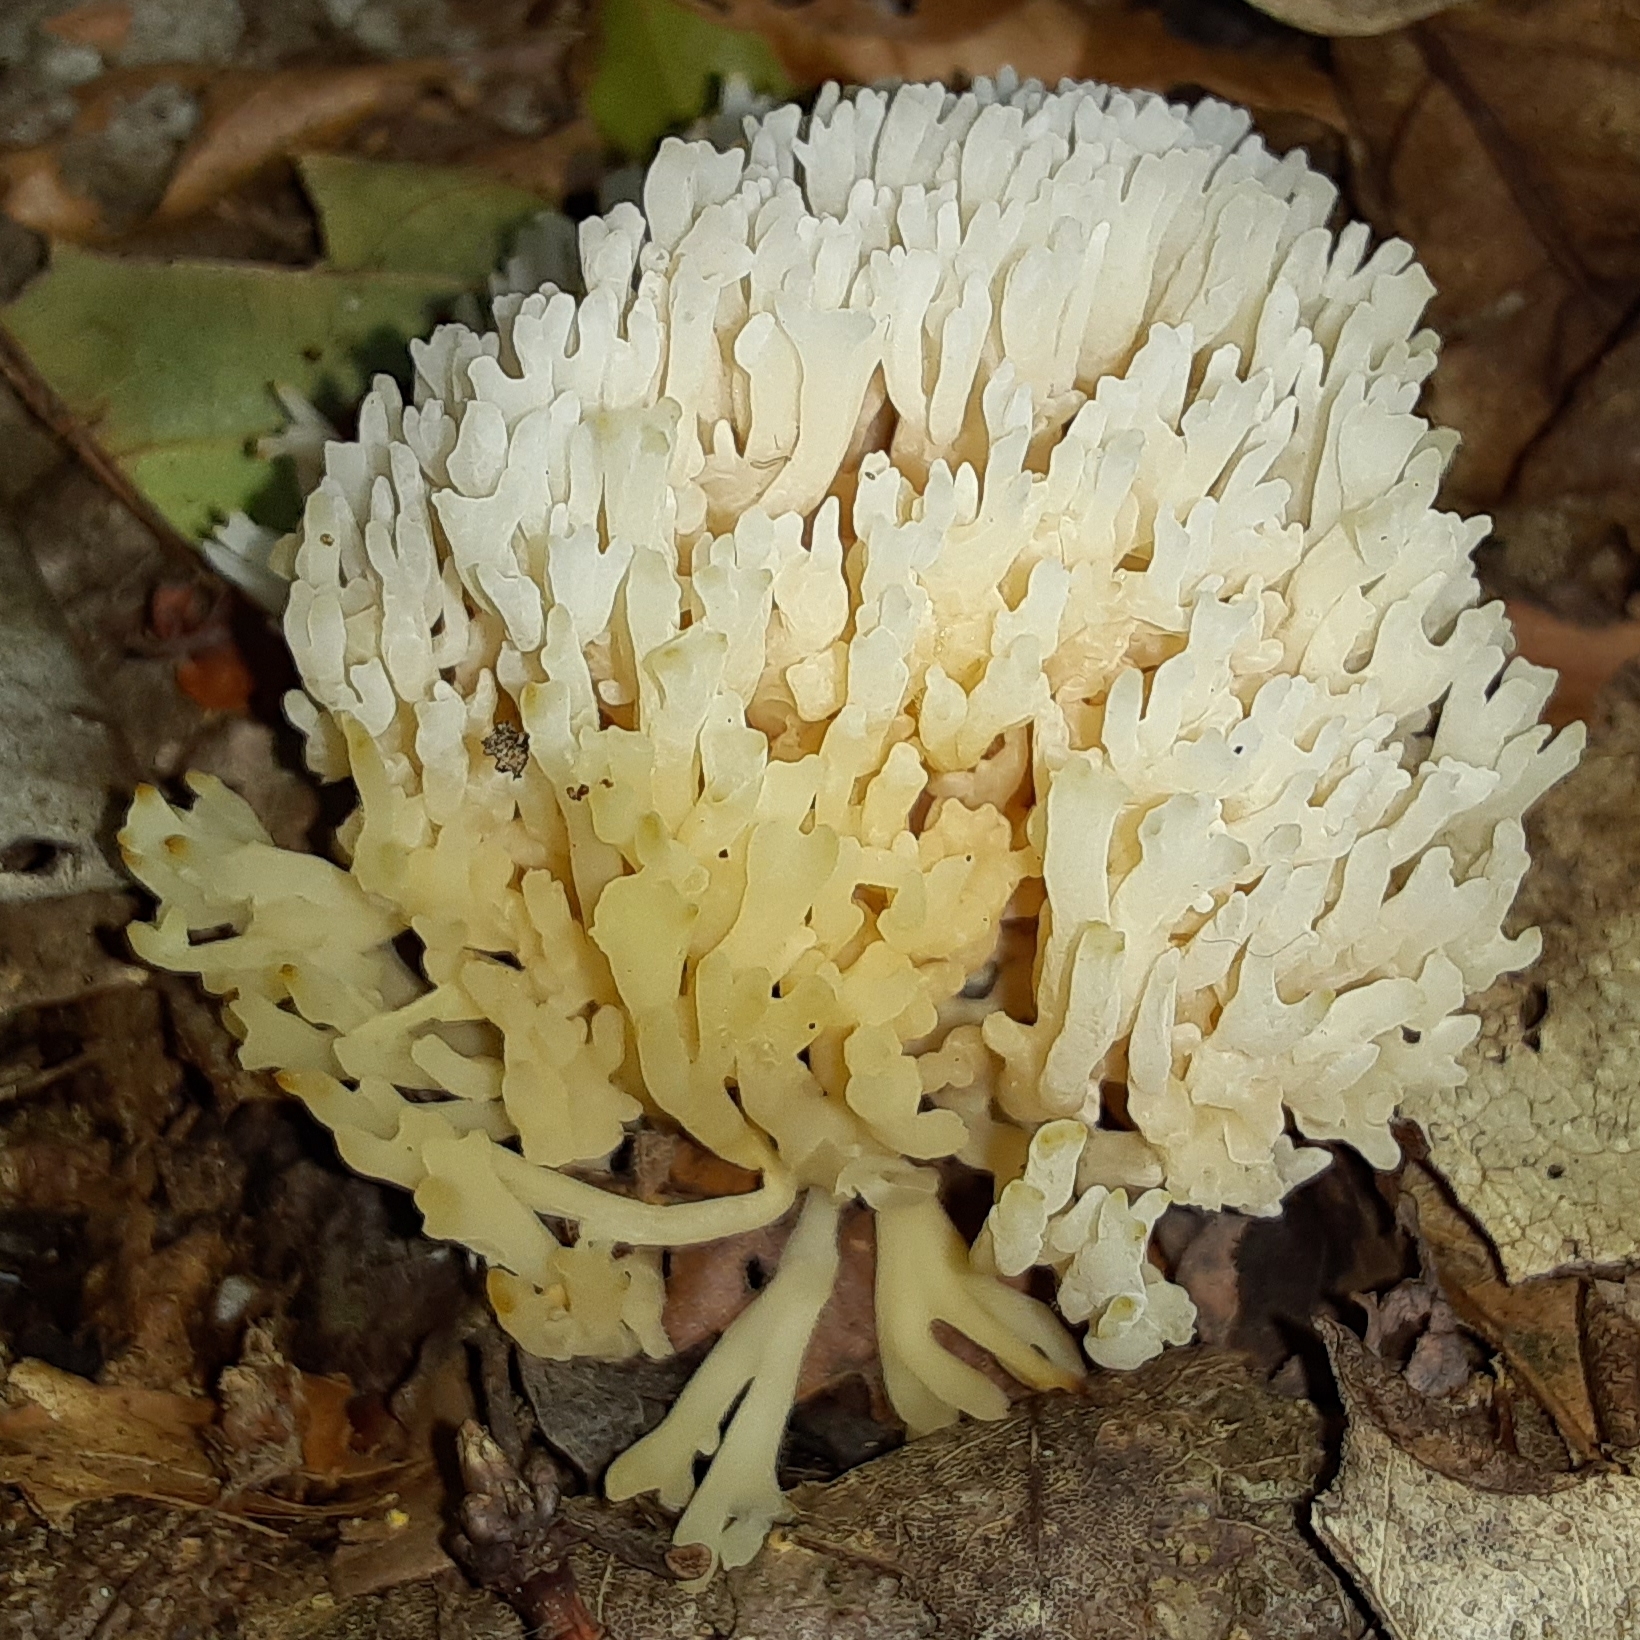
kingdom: Fungi
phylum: Basidiomycota
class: Agaricomycetes
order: Agaricales
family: Clavariaceae
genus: Ramariopsis
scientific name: Ramariopsis kunzei
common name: Ivory coral
